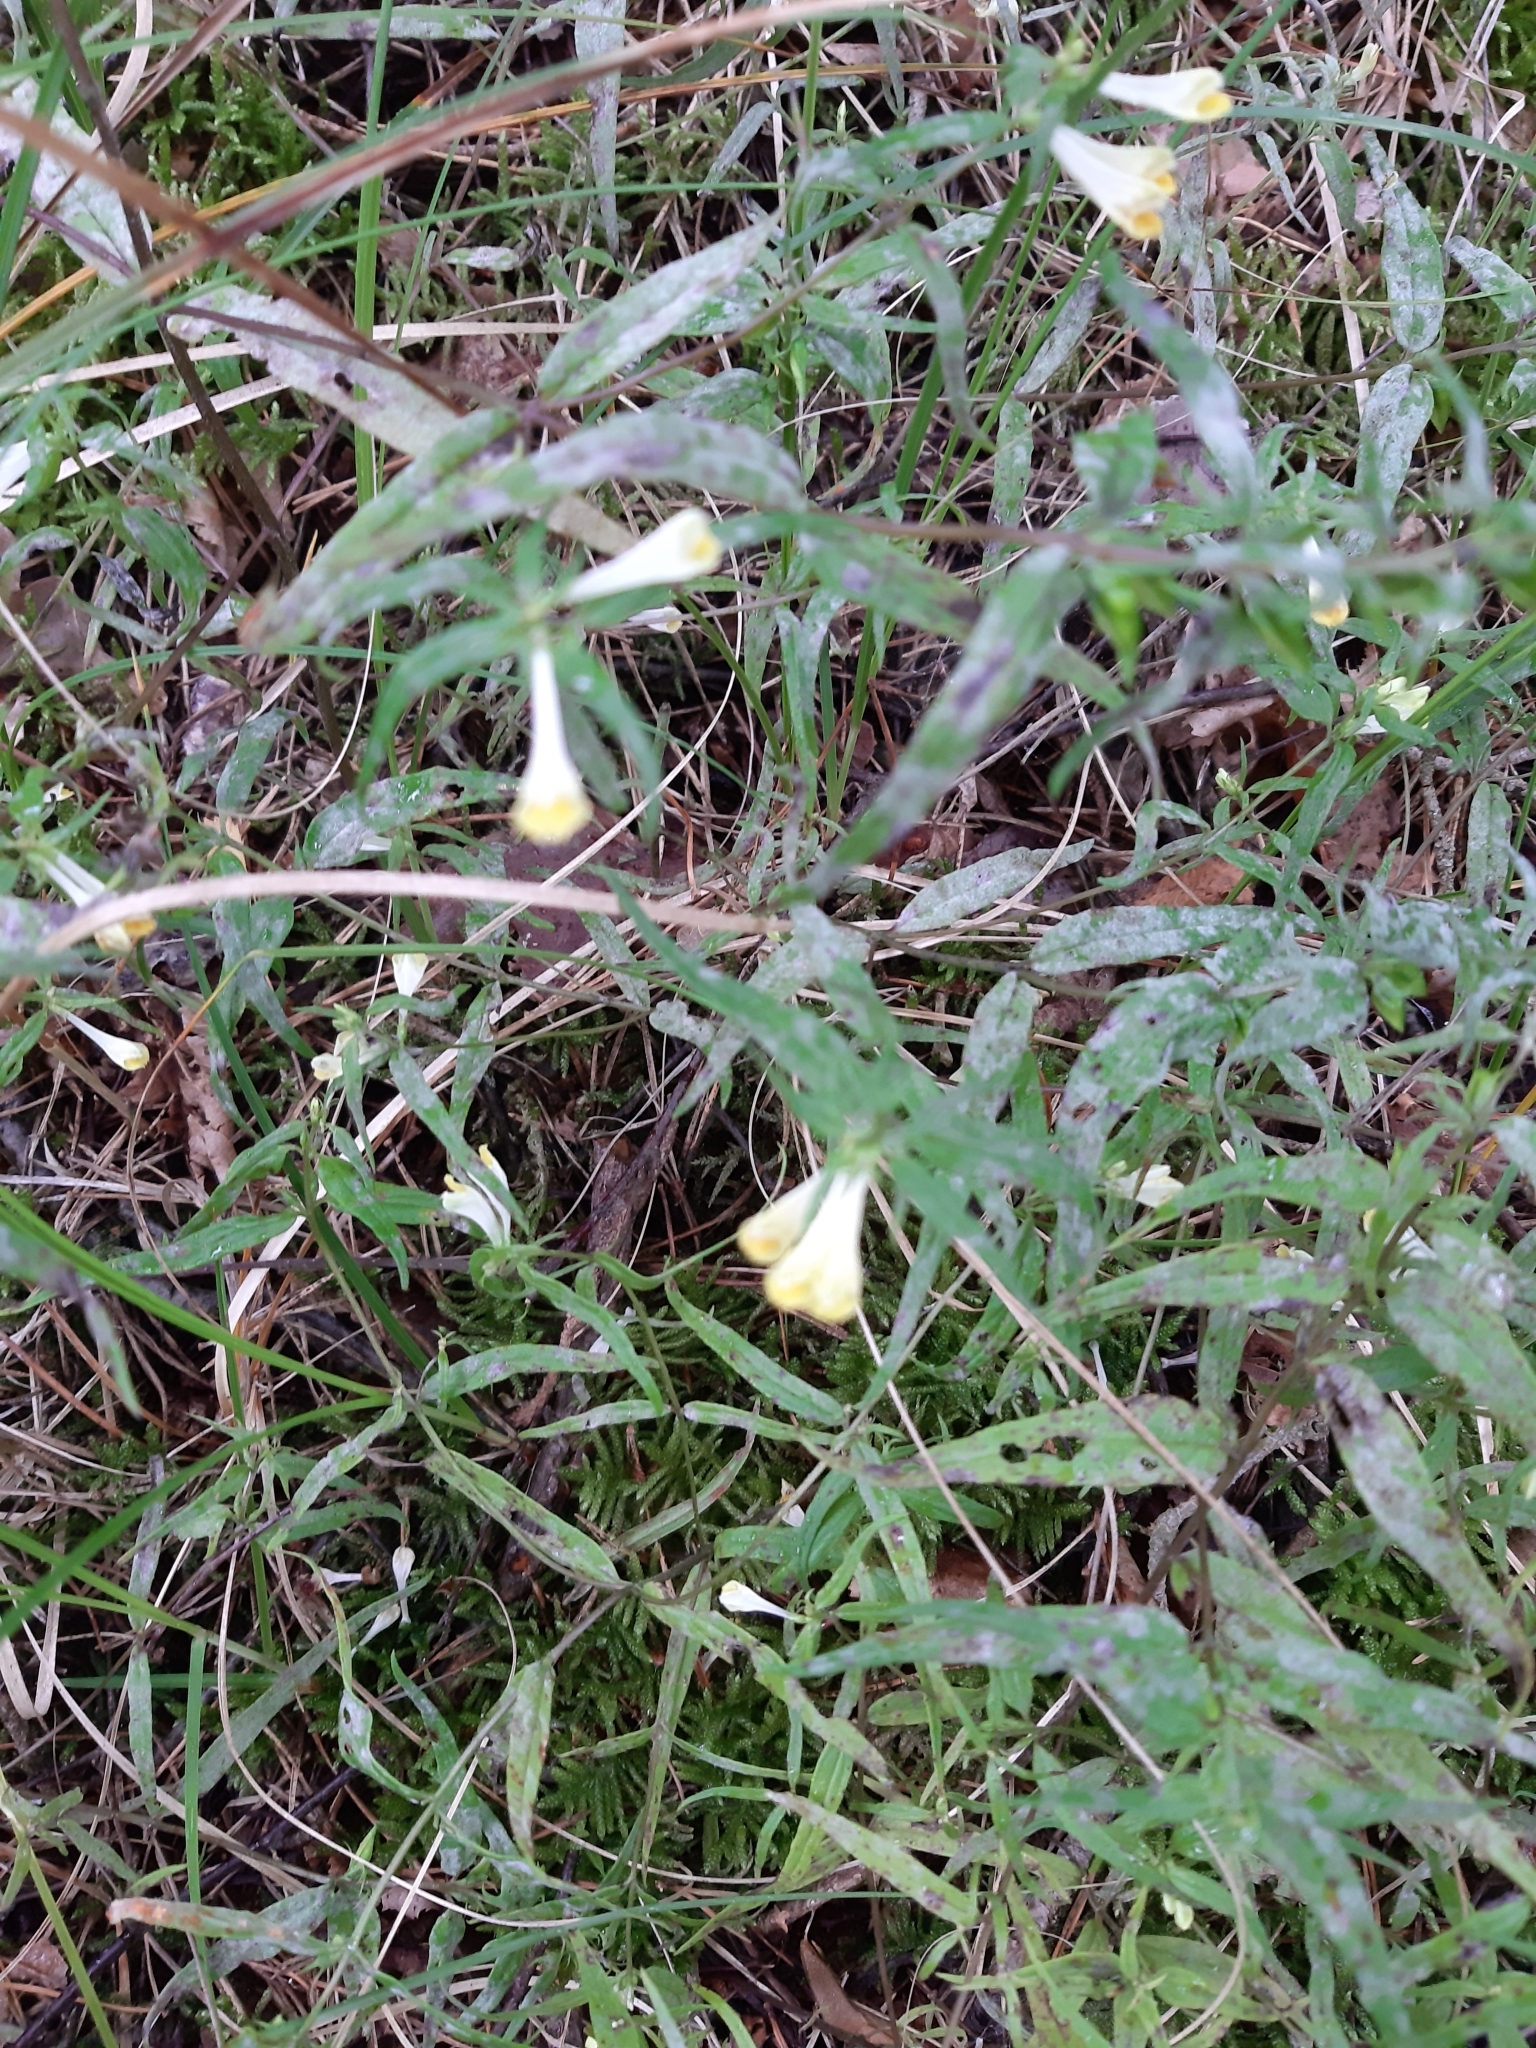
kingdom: Plantae
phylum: Tracheophyta
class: Magnoliopsida
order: Lamiales
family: Orobanchaceae
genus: Melampyrum
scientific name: Melampyrum pratense
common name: Common cow-wheat
